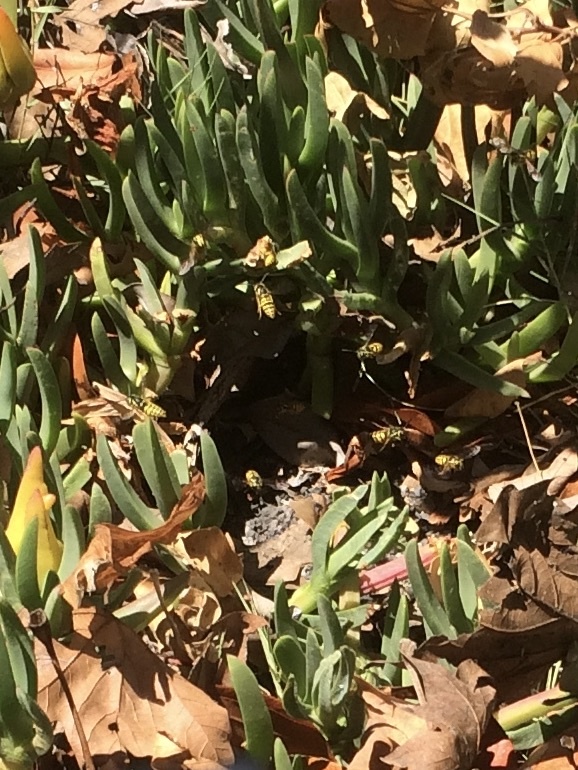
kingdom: Animalia
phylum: Arthropoda
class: Insecta
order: Hymenoptera
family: Vespidae
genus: Vespula
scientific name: Vespula pensylvanica
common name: Western yellowjacket
